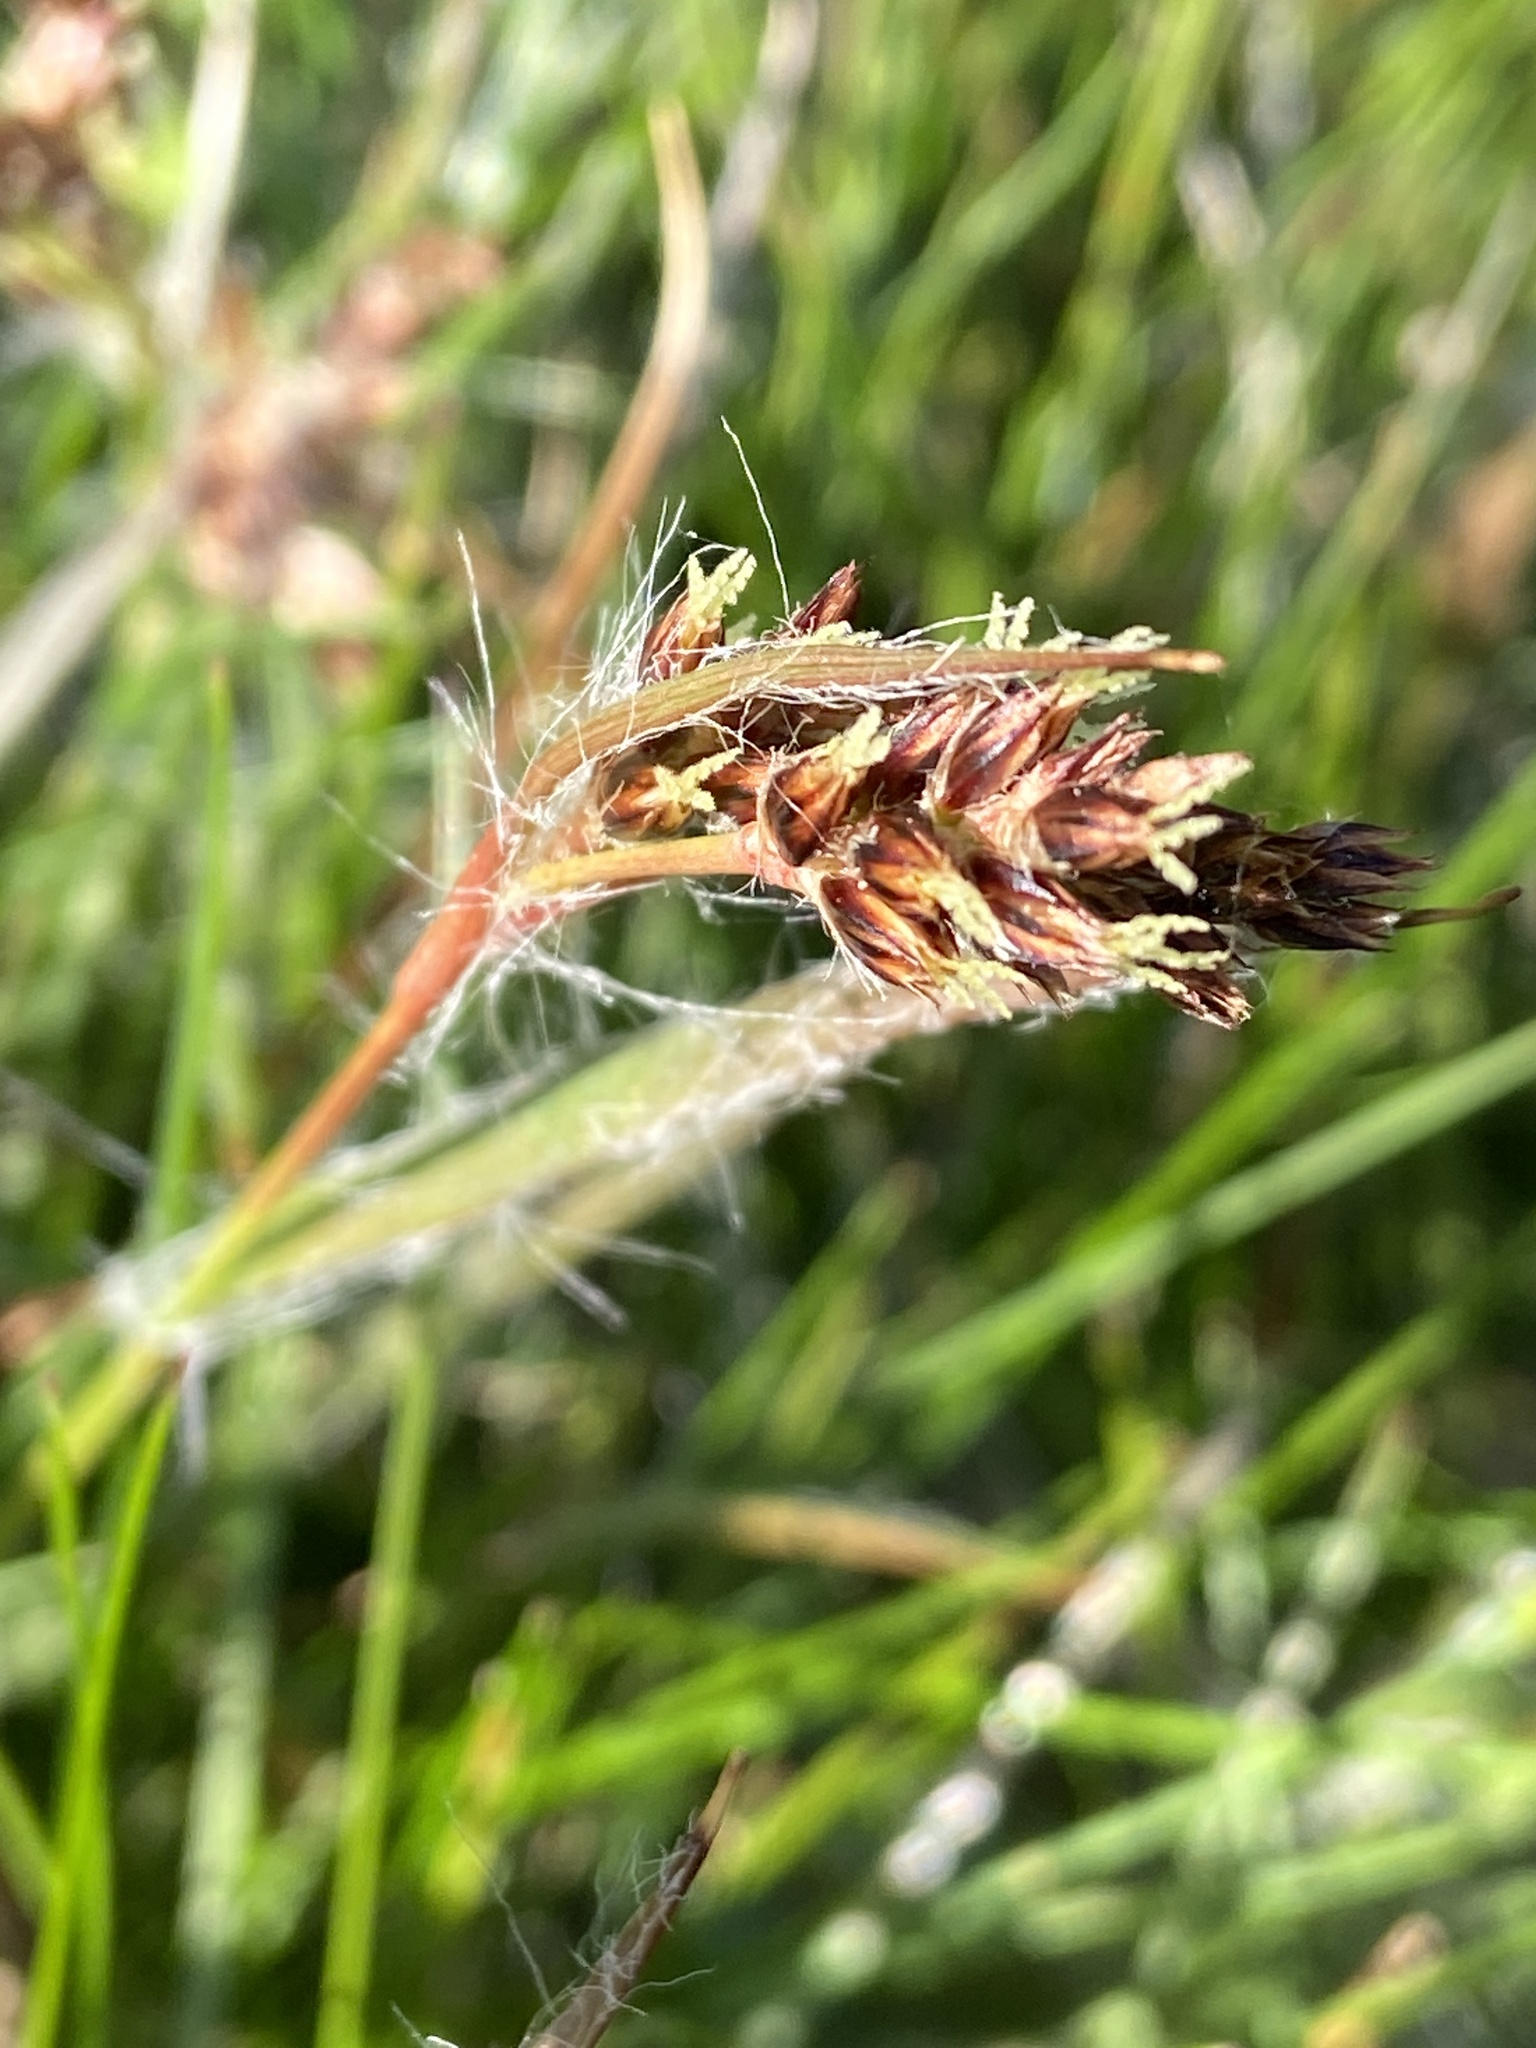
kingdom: Plantae
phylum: Tracheophyta
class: Liliopsida
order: Poales
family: Juncaceae
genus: Luzula
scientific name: Luzula campestris
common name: Field wood-rush
